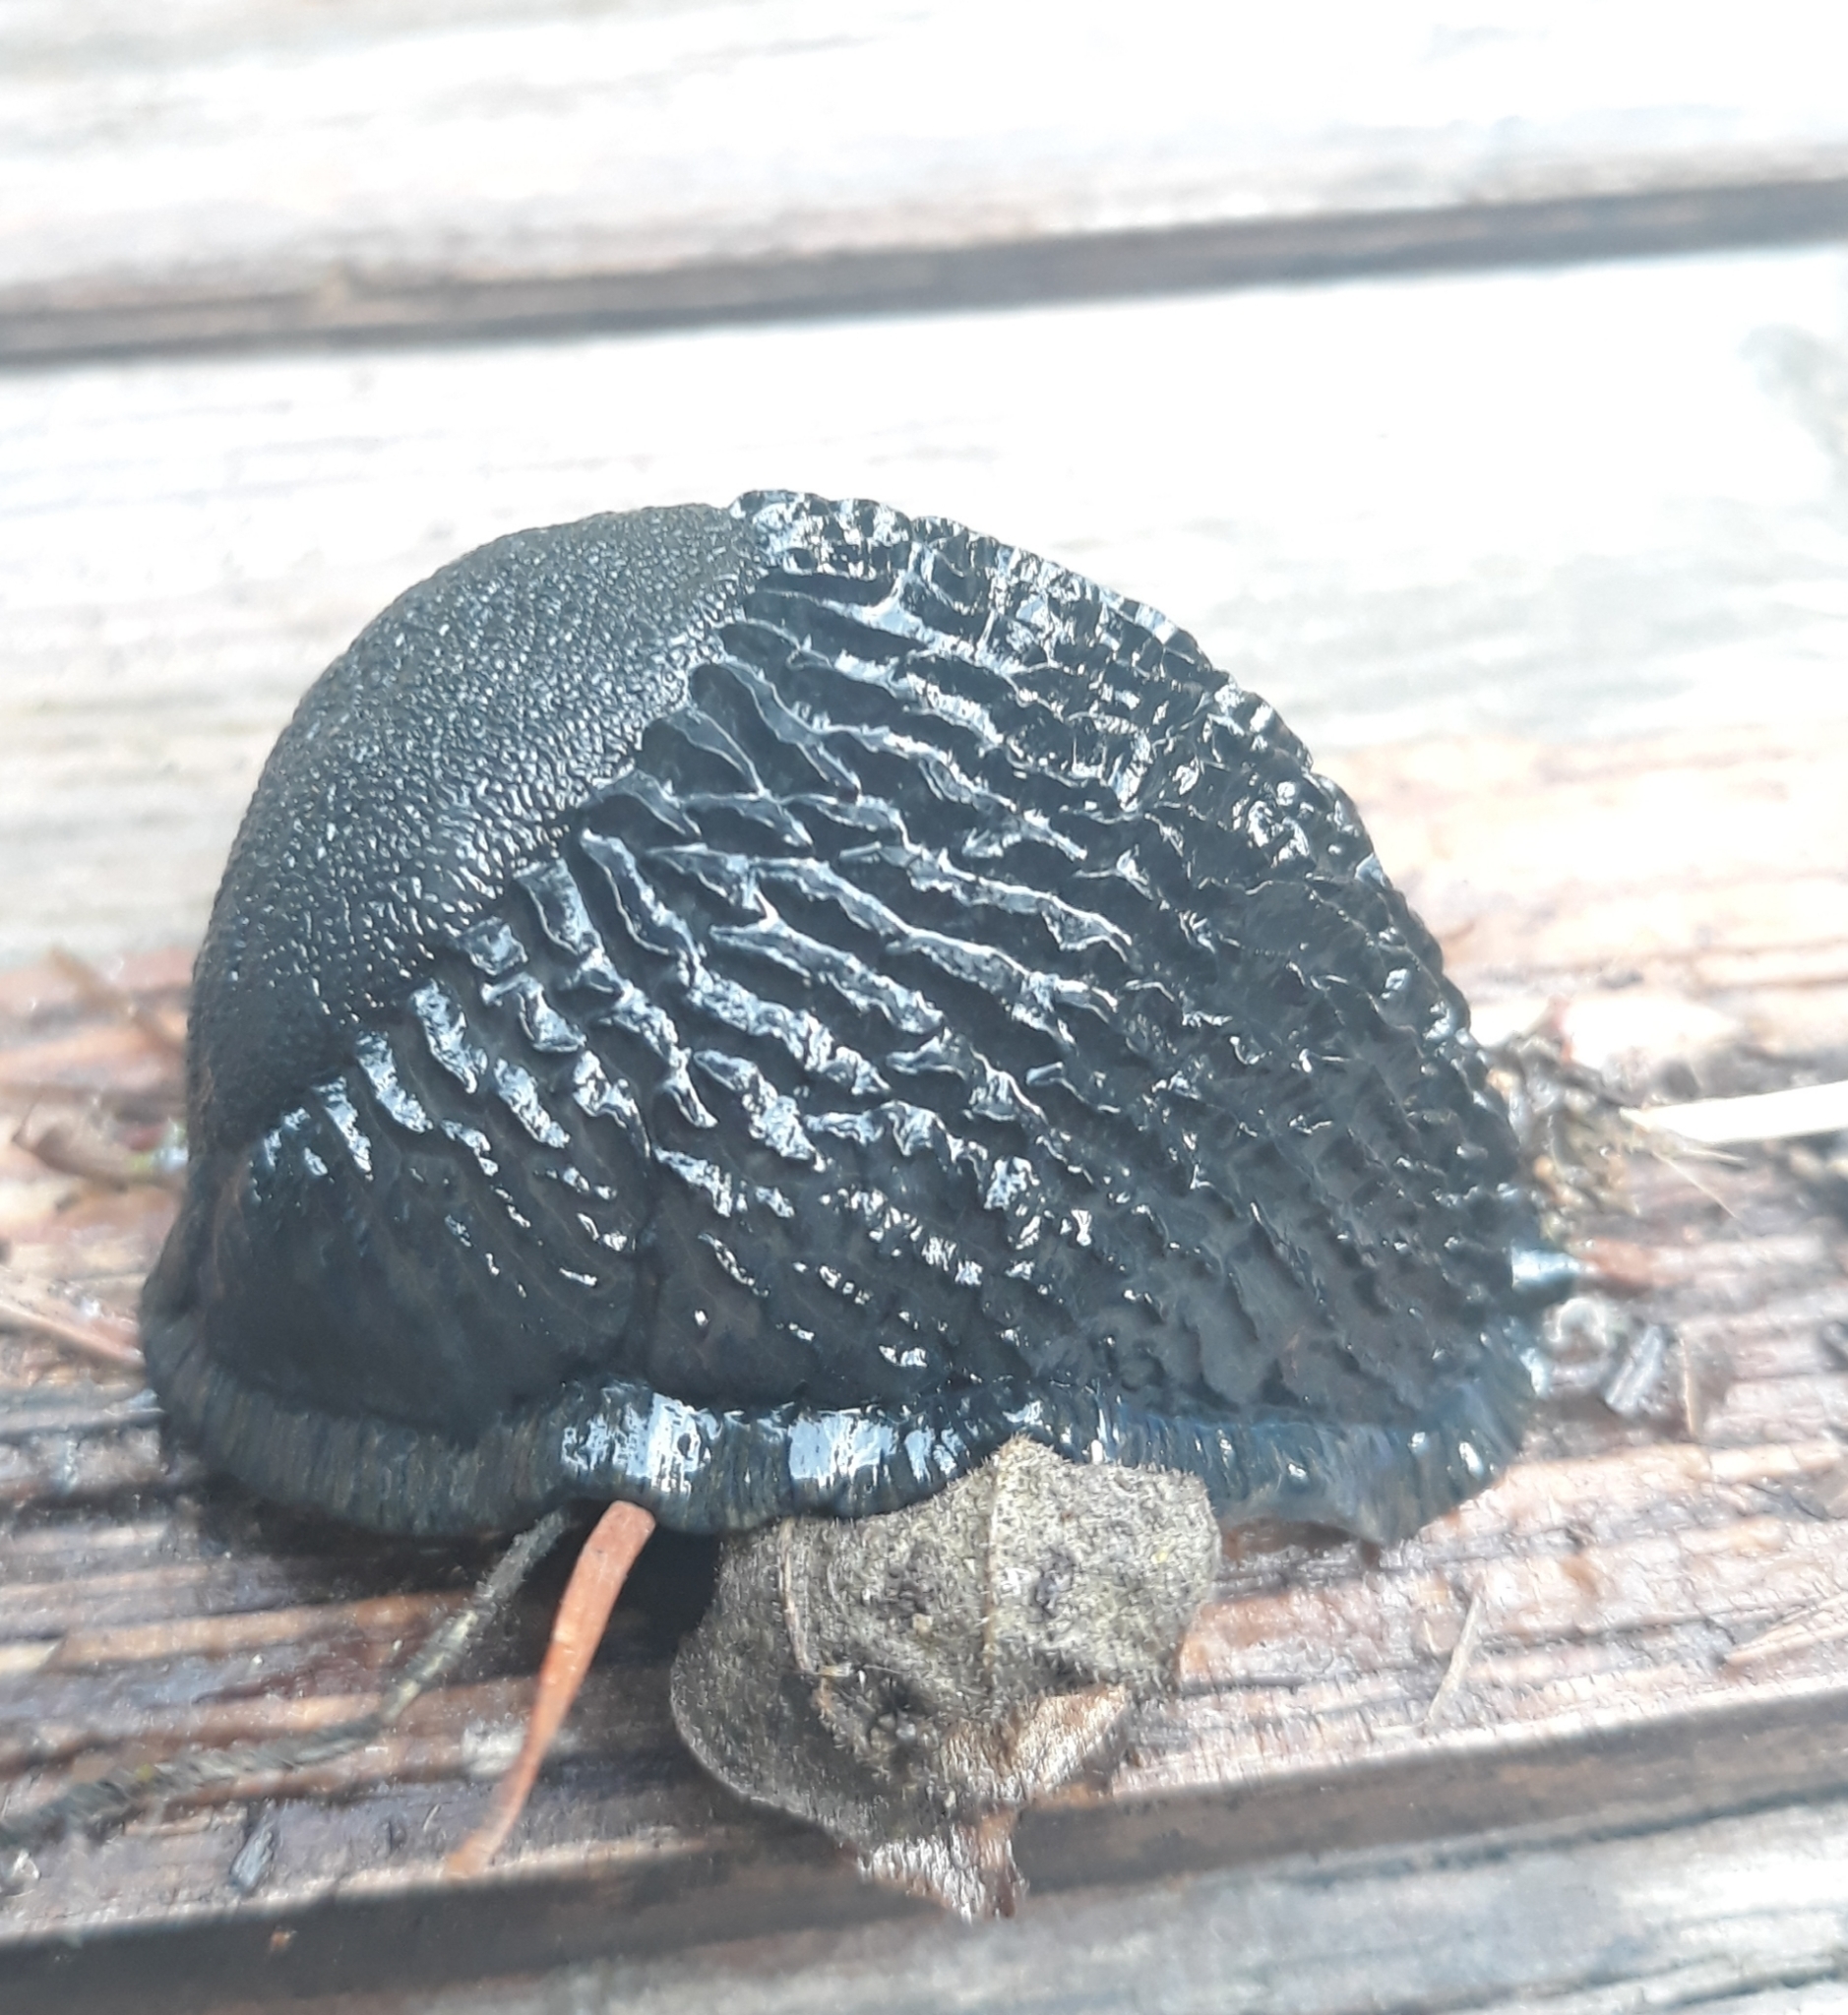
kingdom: Animalia
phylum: Mollusca
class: Gastropoda
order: Stylommatophora
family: Arionidae
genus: Arion
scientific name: Arion
